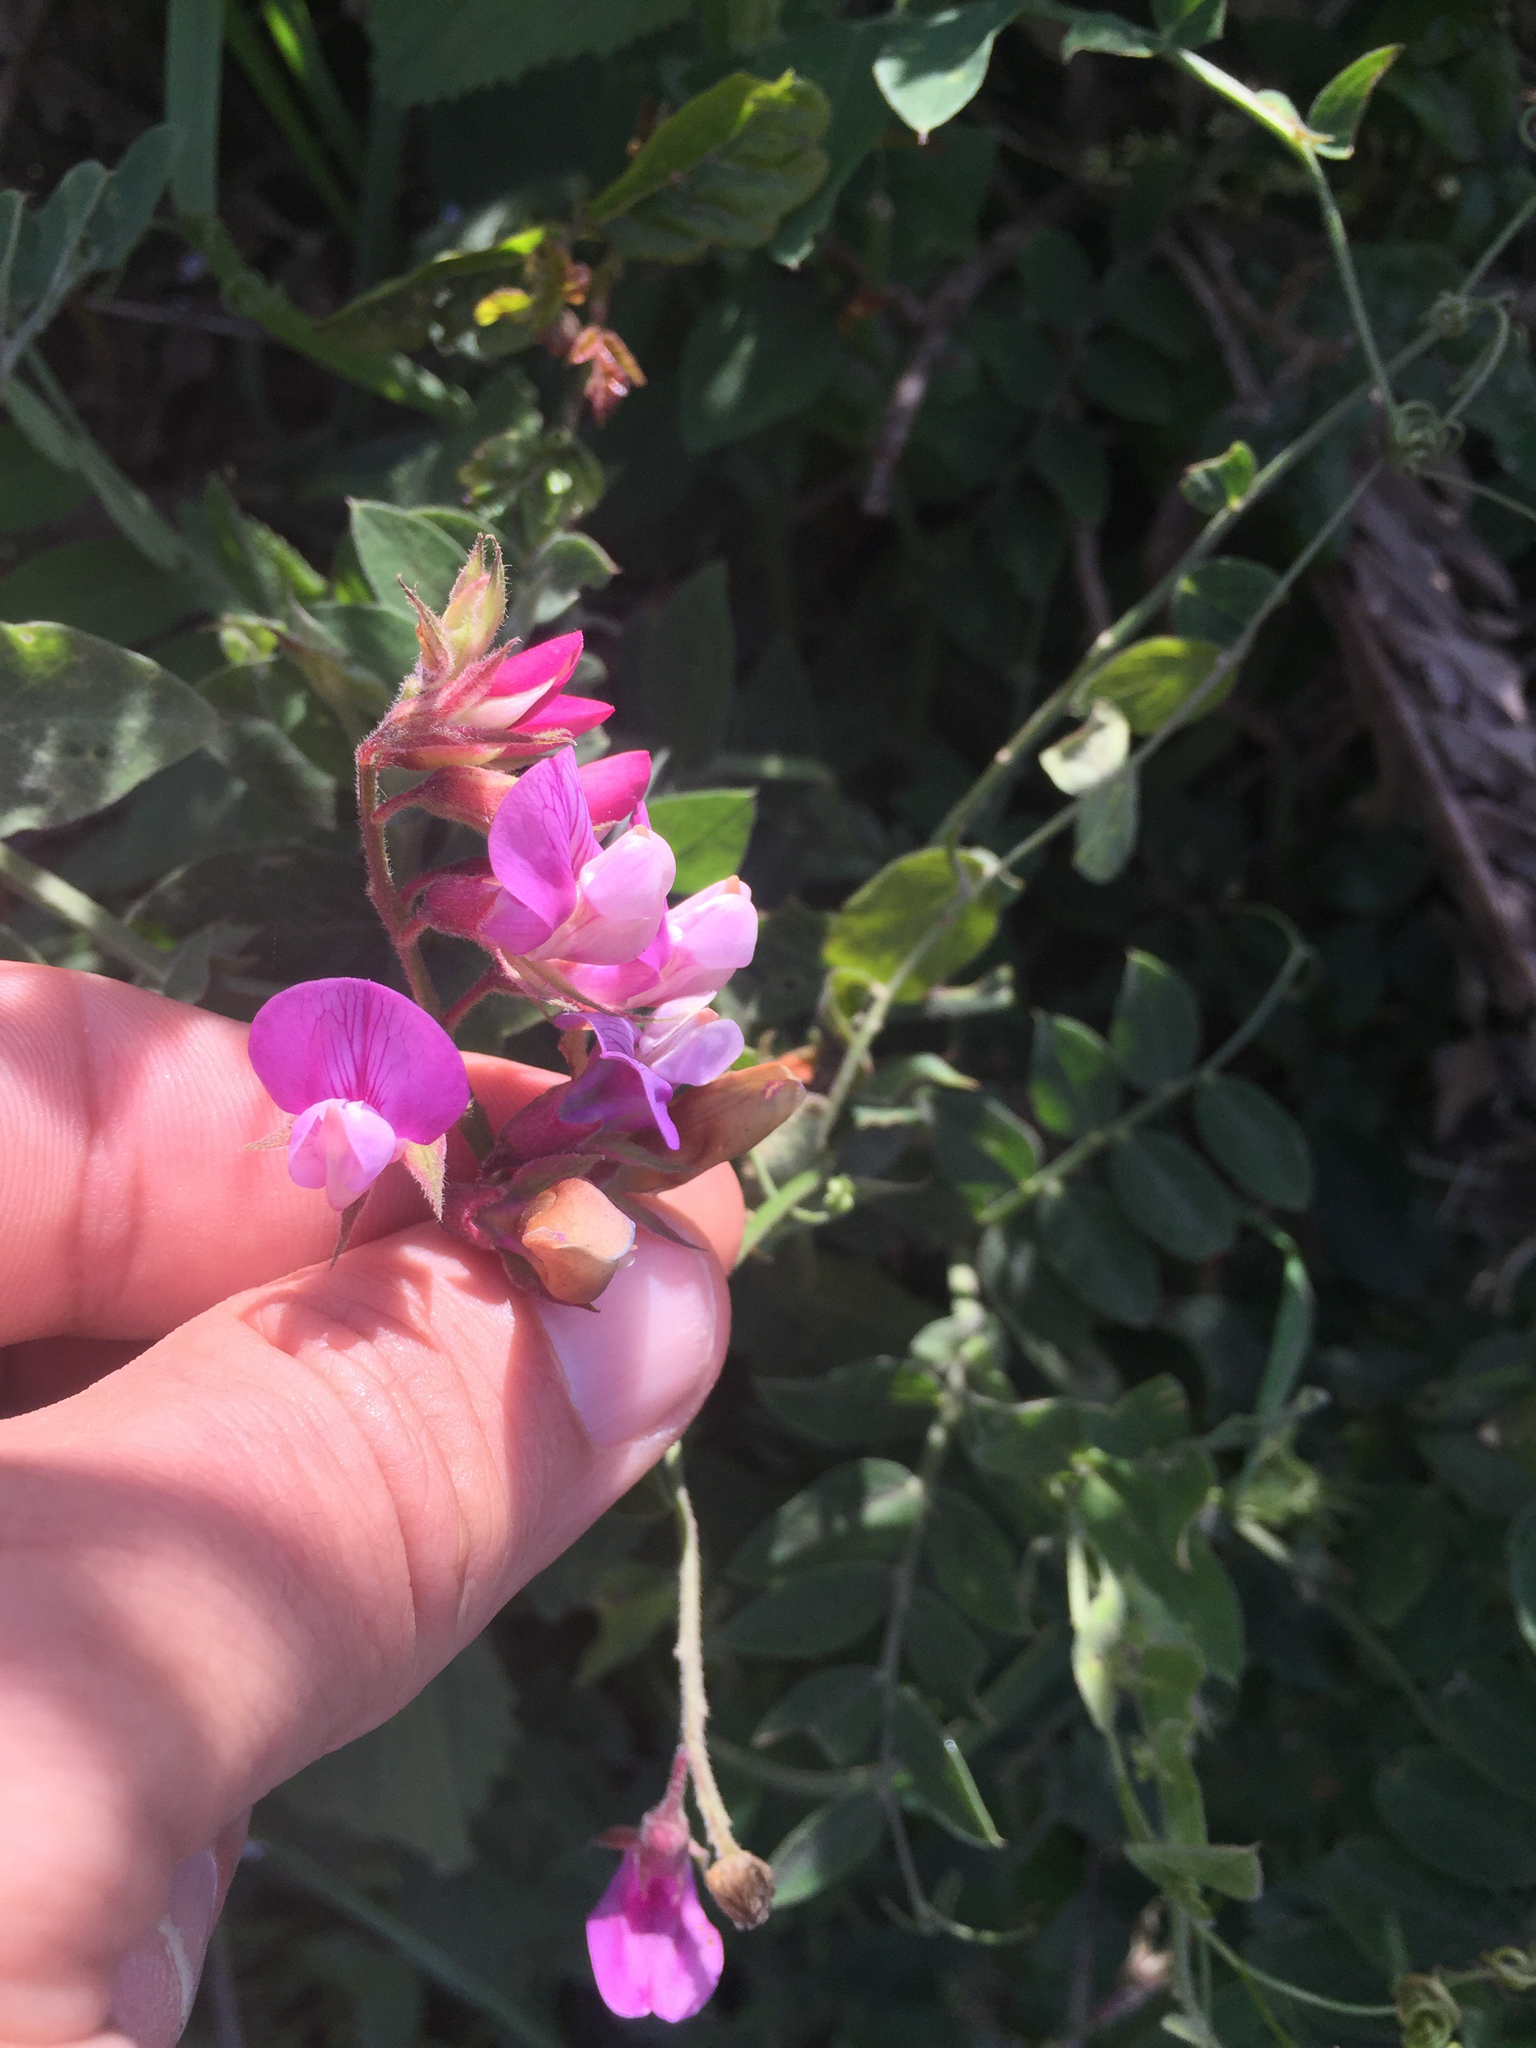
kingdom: Plantae
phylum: Tracheophyta
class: Magnoliopsida
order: Fabales
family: Fabaceae
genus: Lathyrus
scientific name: Lathyrus vestitus
